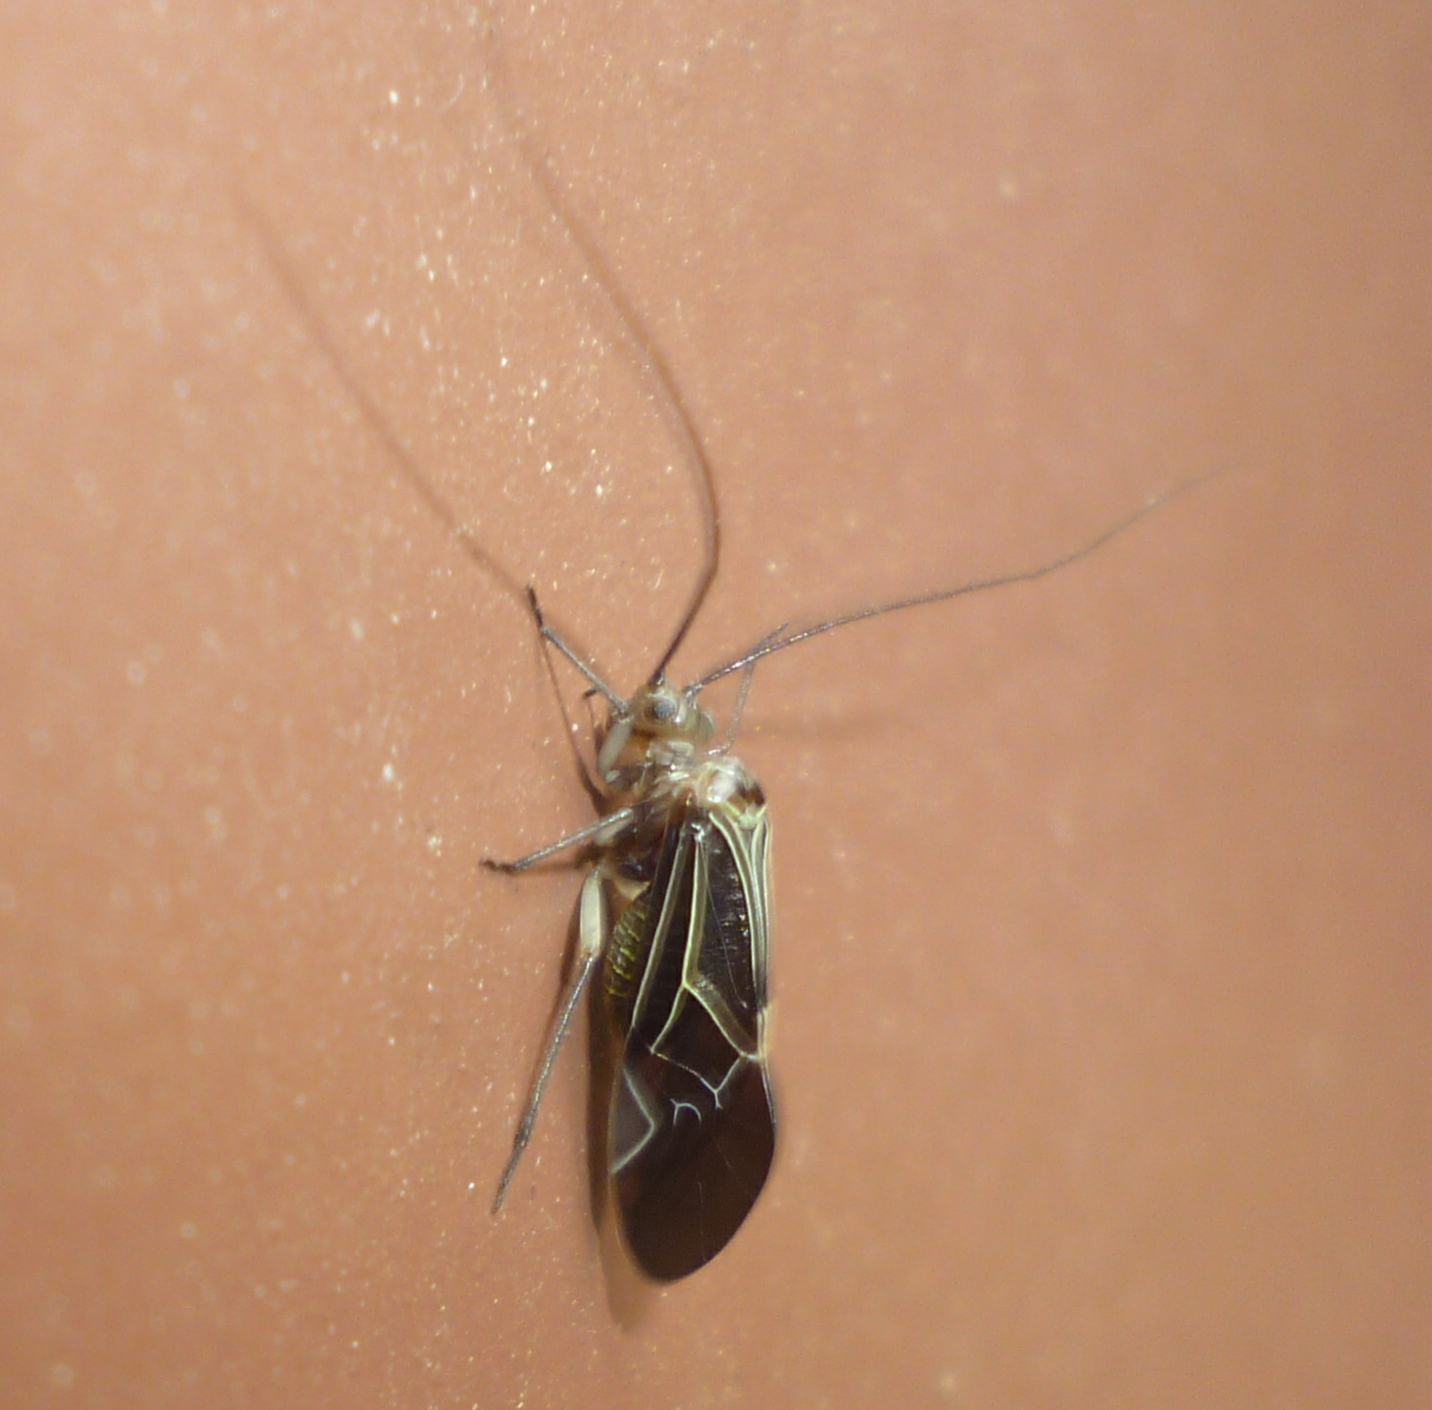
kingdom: Animalia
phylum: Arthropoda
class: Insecta
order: Psocodea
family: Psocidae
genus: Cerastipsocus
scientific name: Cerastipsocus venosus
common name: Tree cattle
